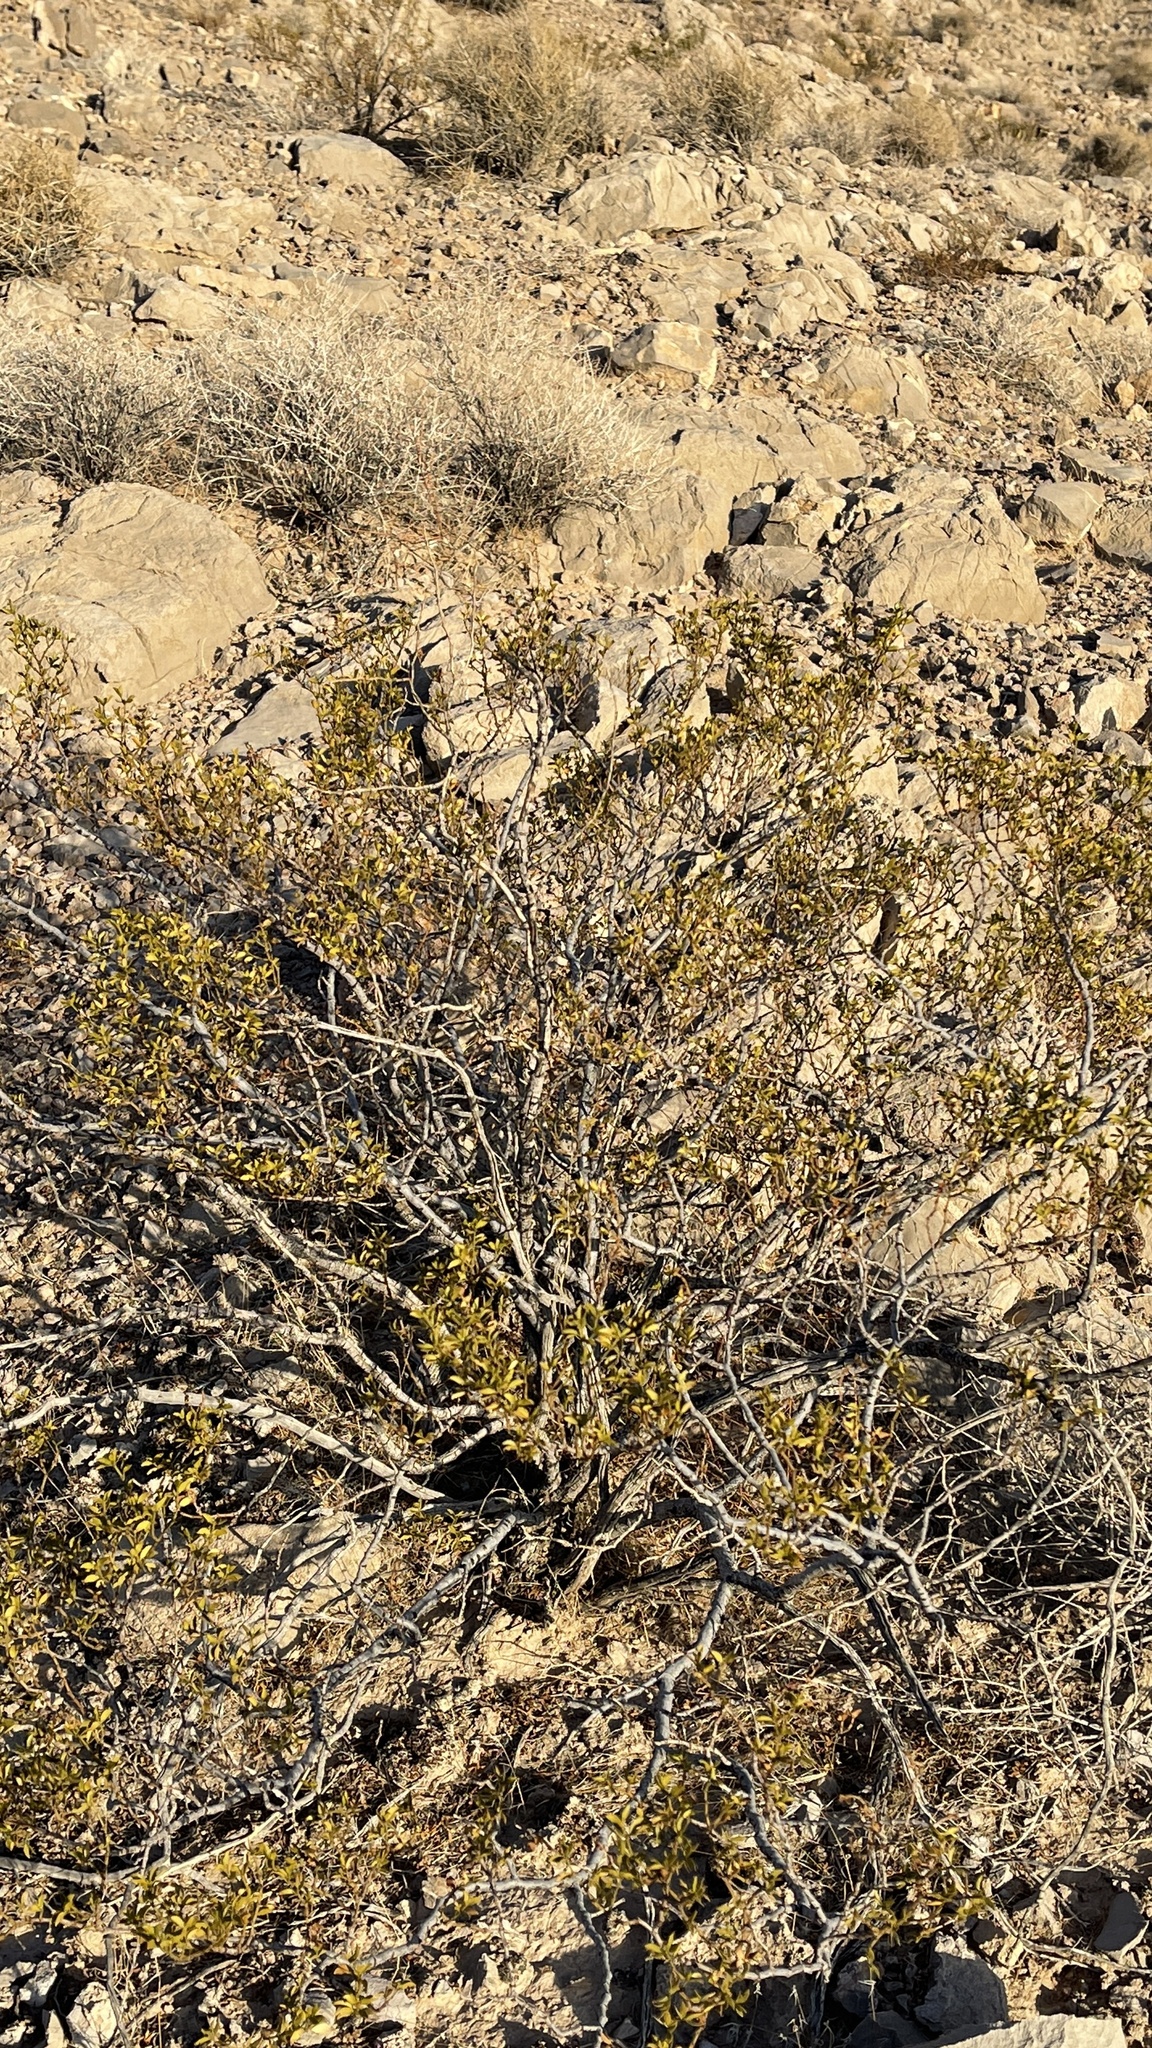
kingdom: Plantae
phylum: Tracheophyta
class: Magnoliopsida
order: Zygophyllales
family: Zygophyllaceae
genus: Larrea
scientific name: Larrea tridentata
